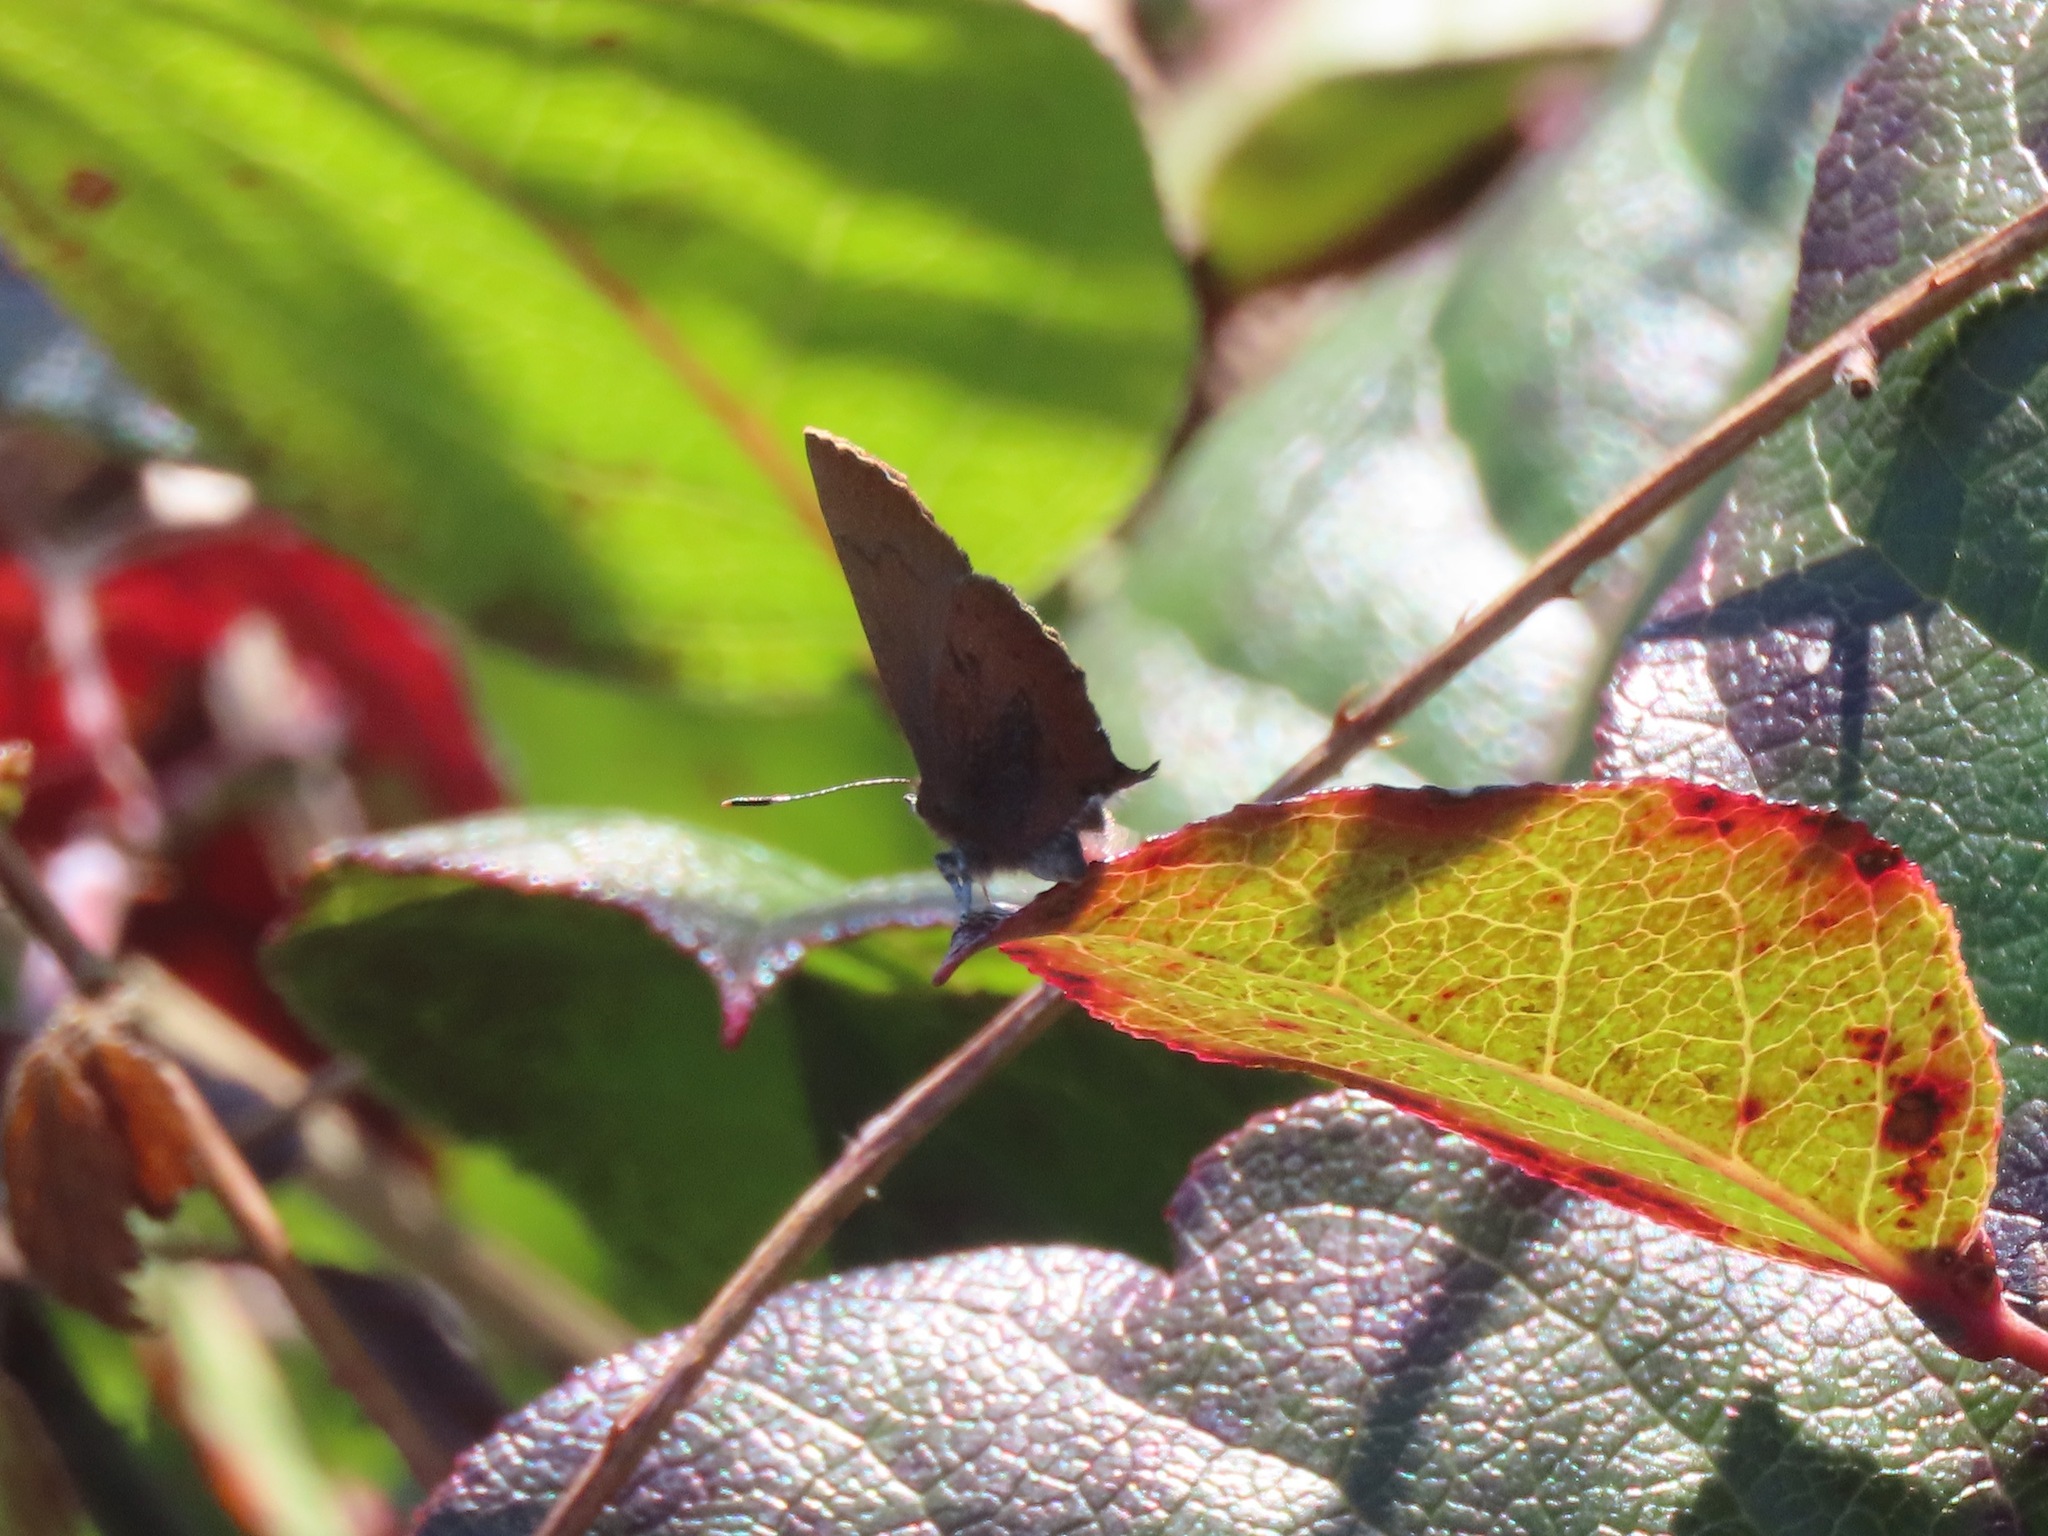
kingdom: Animalia
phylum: Arthropoda
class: Insecta
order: Lepidoptera
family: Lycaenidae
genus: Incisalia
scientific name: Incisalia irioides
